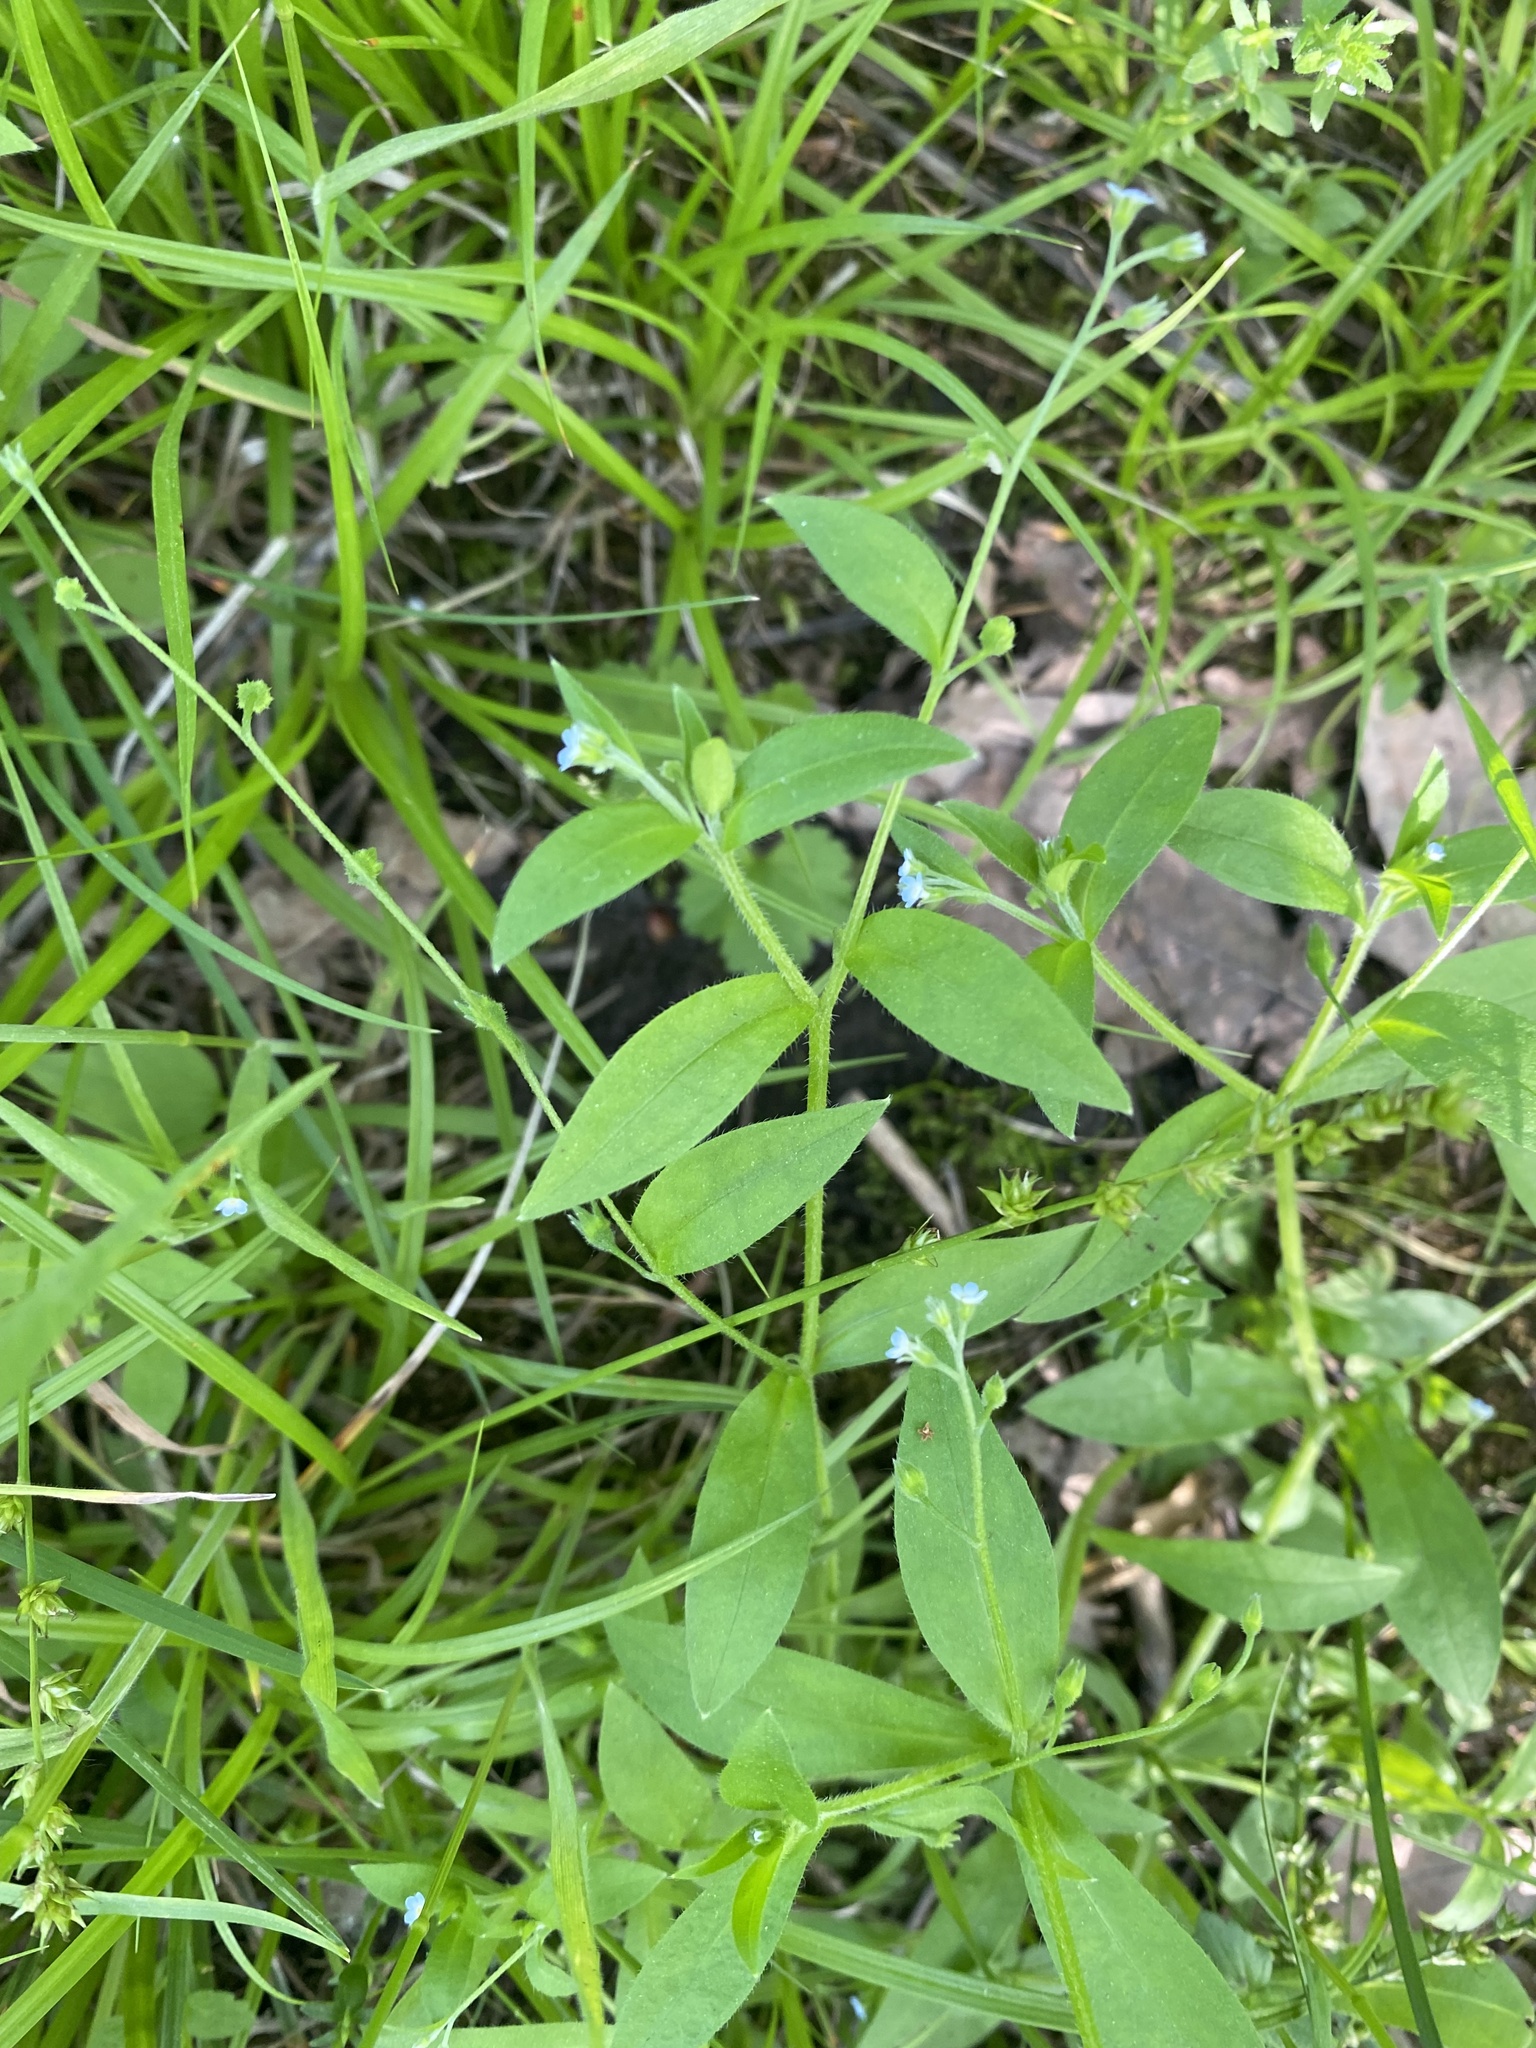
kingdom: Plantae
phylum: Tracheophyta
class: Magnoliopsida
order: Boraginales
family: Boraginaceae
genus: Myosotis
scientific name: Myosotis sparsiflora
